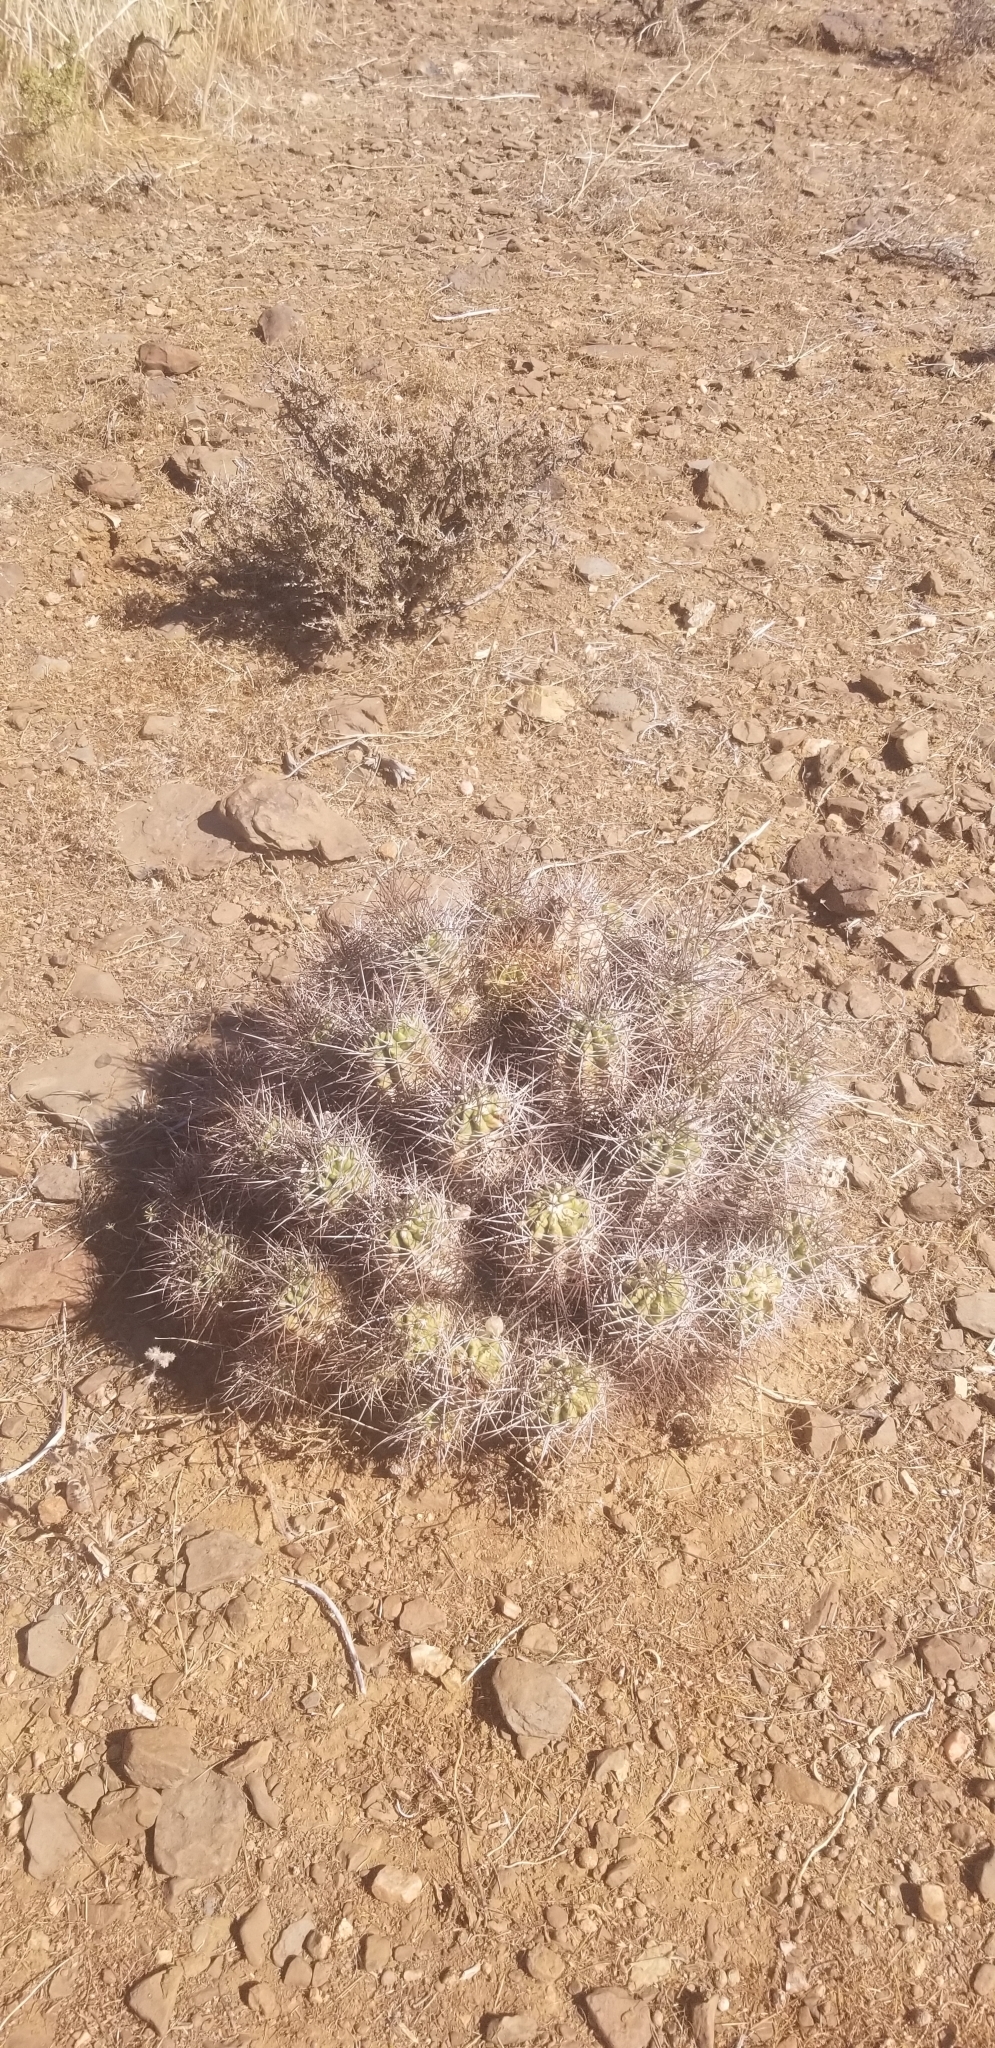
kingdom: Plantae
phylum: Tracheophyta
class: Magnoliopsida
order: Caryophyllales
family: Cactaceae
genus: Echinocereus
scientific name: Echinocereus triglochidiatus
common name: Claretcup hedgehog
